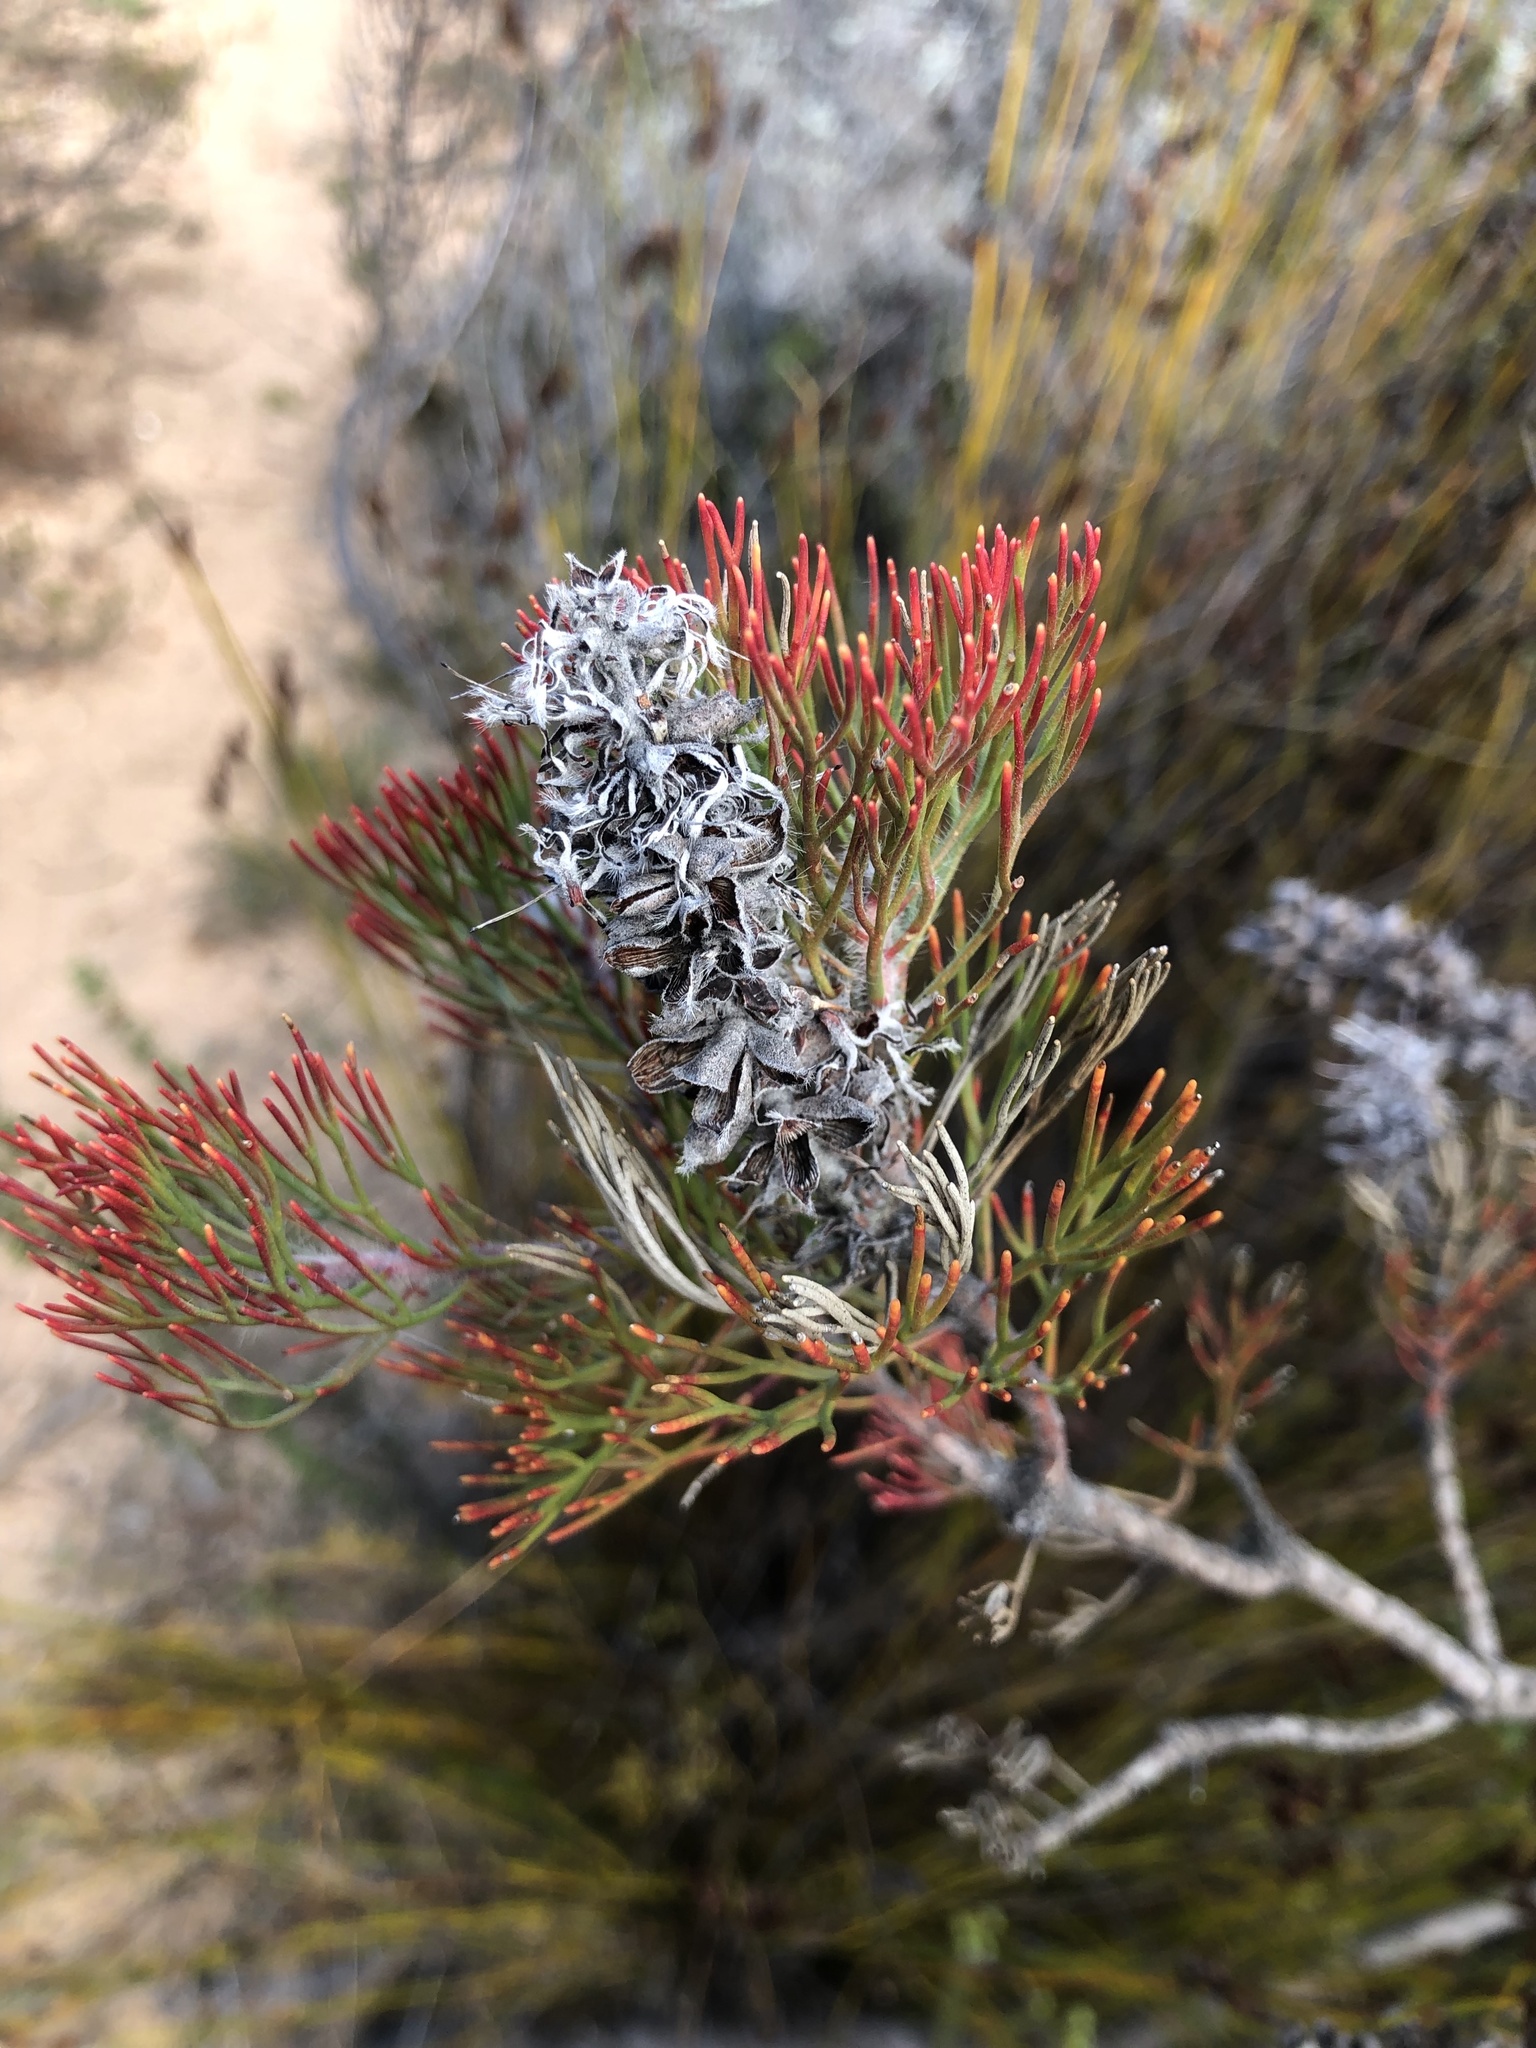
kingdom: Plantae
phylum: Tracheophyta
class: Magnoliopsida
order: Proteales
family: Proteaceae
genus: Paranomus
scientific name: Paranomus lagopus
